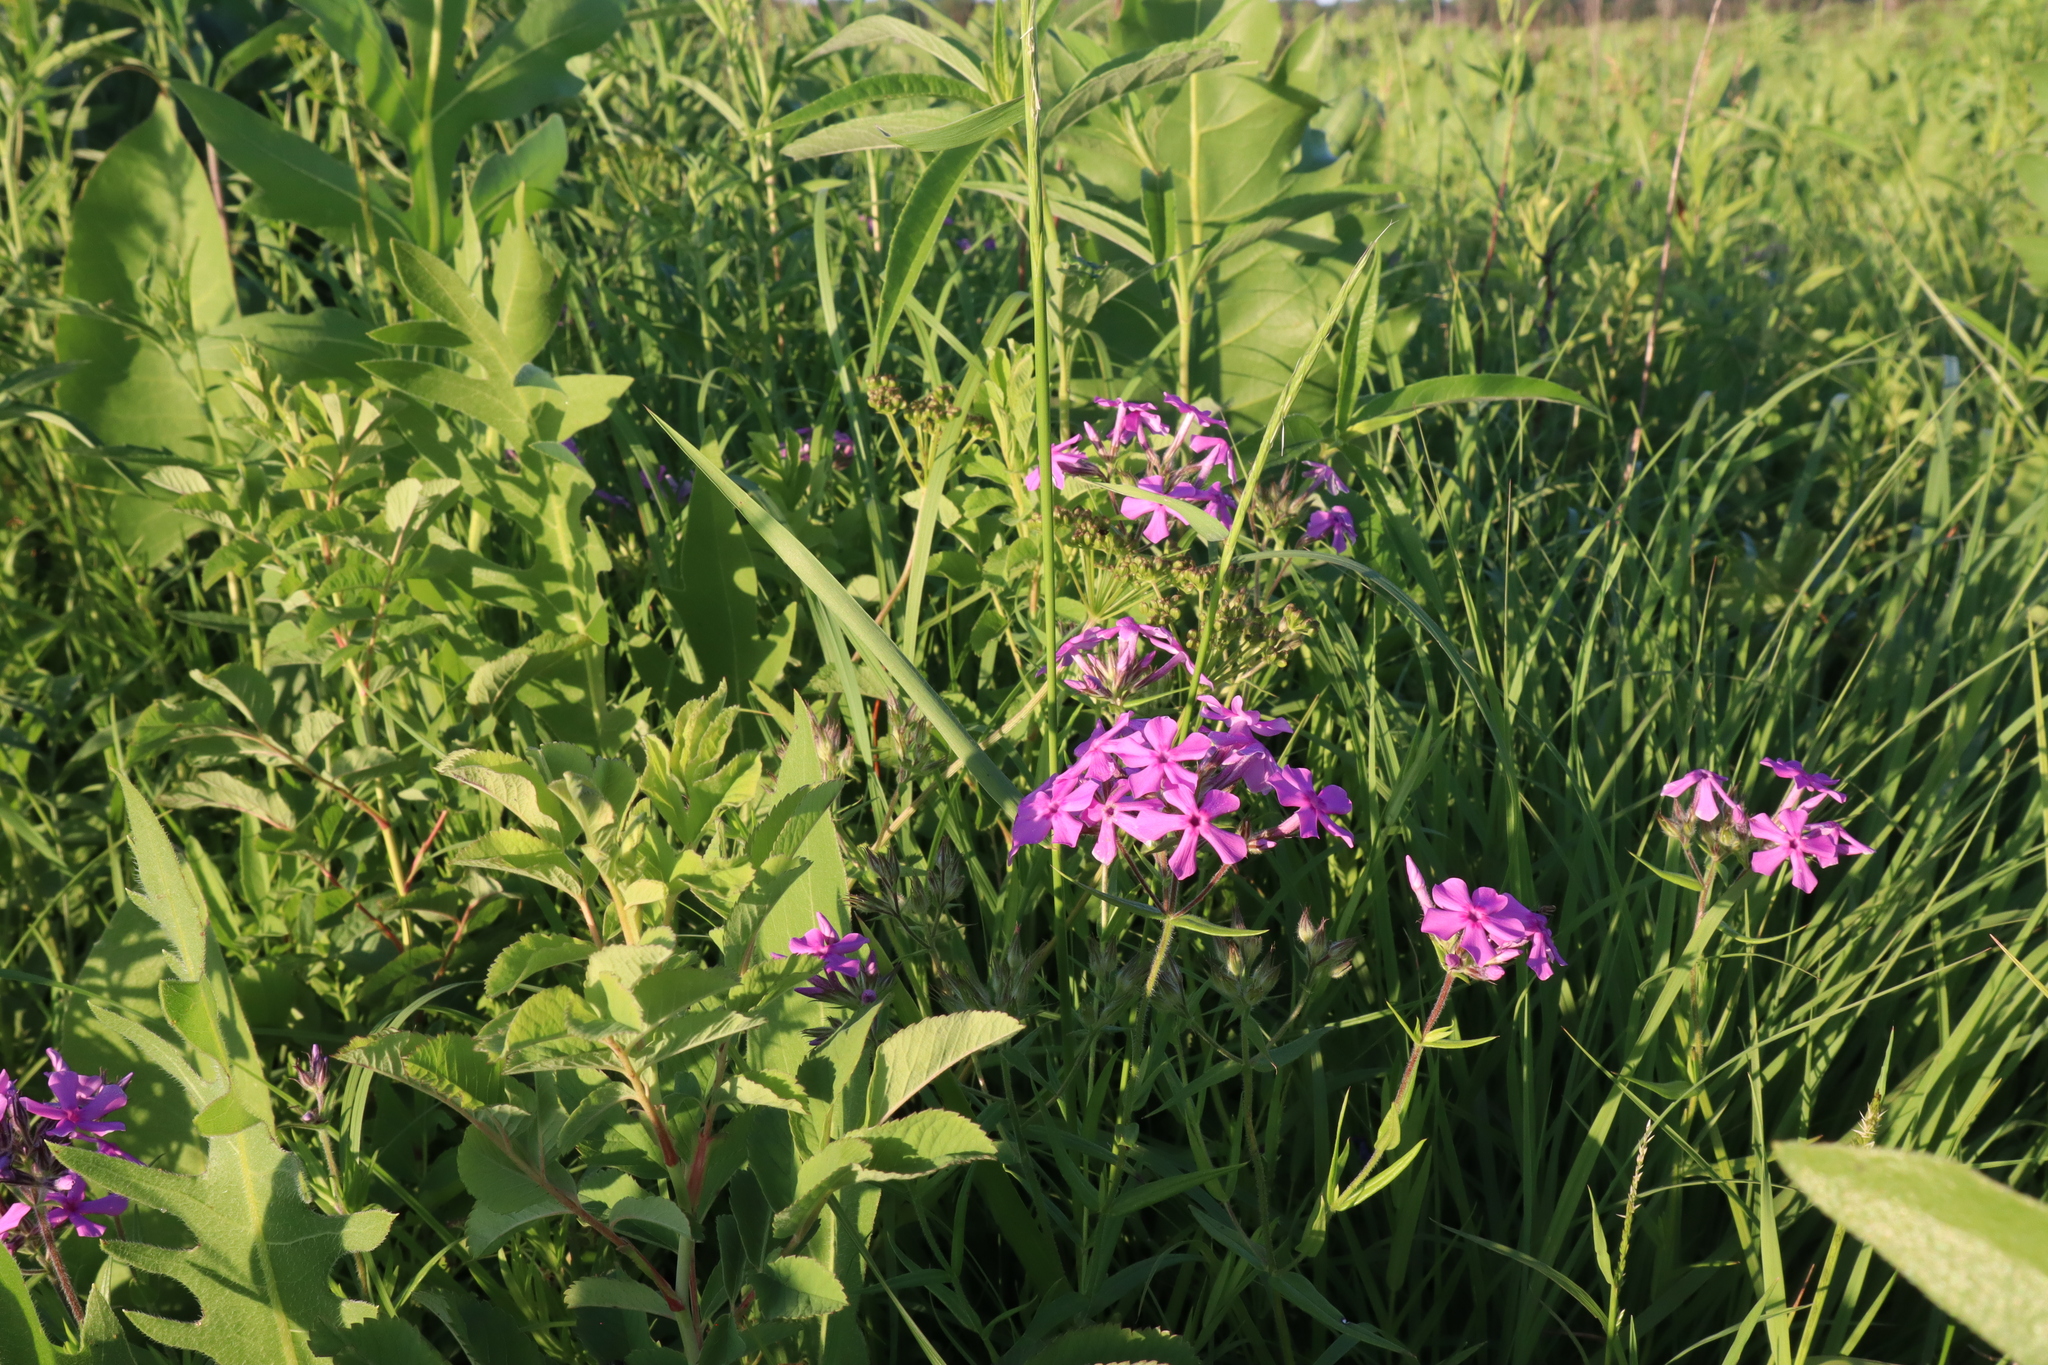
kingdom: Plantae
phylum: Tracheophyta
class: Magnoliopsida
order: Ericales
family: Polemoniaceae
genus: Phlox
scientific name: Phlox pilosa
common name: Prairie phlox
